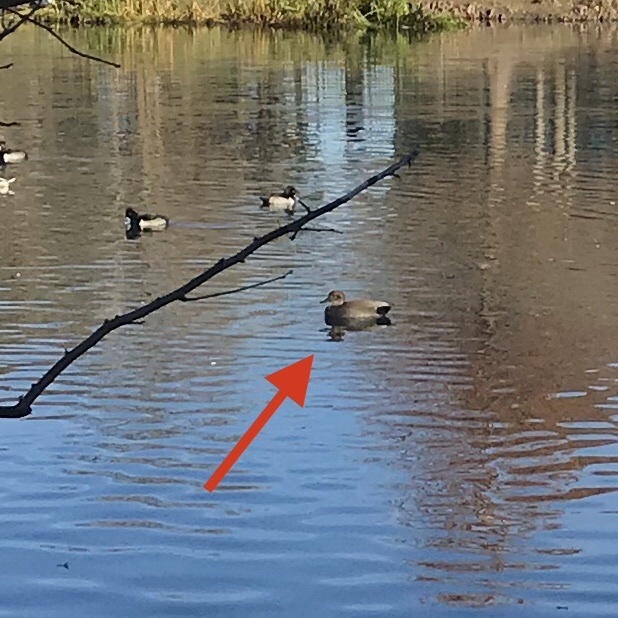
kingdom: Animalia
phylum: Chordata
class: Aves
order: Anseriformes
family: Anatidae
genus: Mareca
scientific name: Mareca strepera
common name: Gadwall
